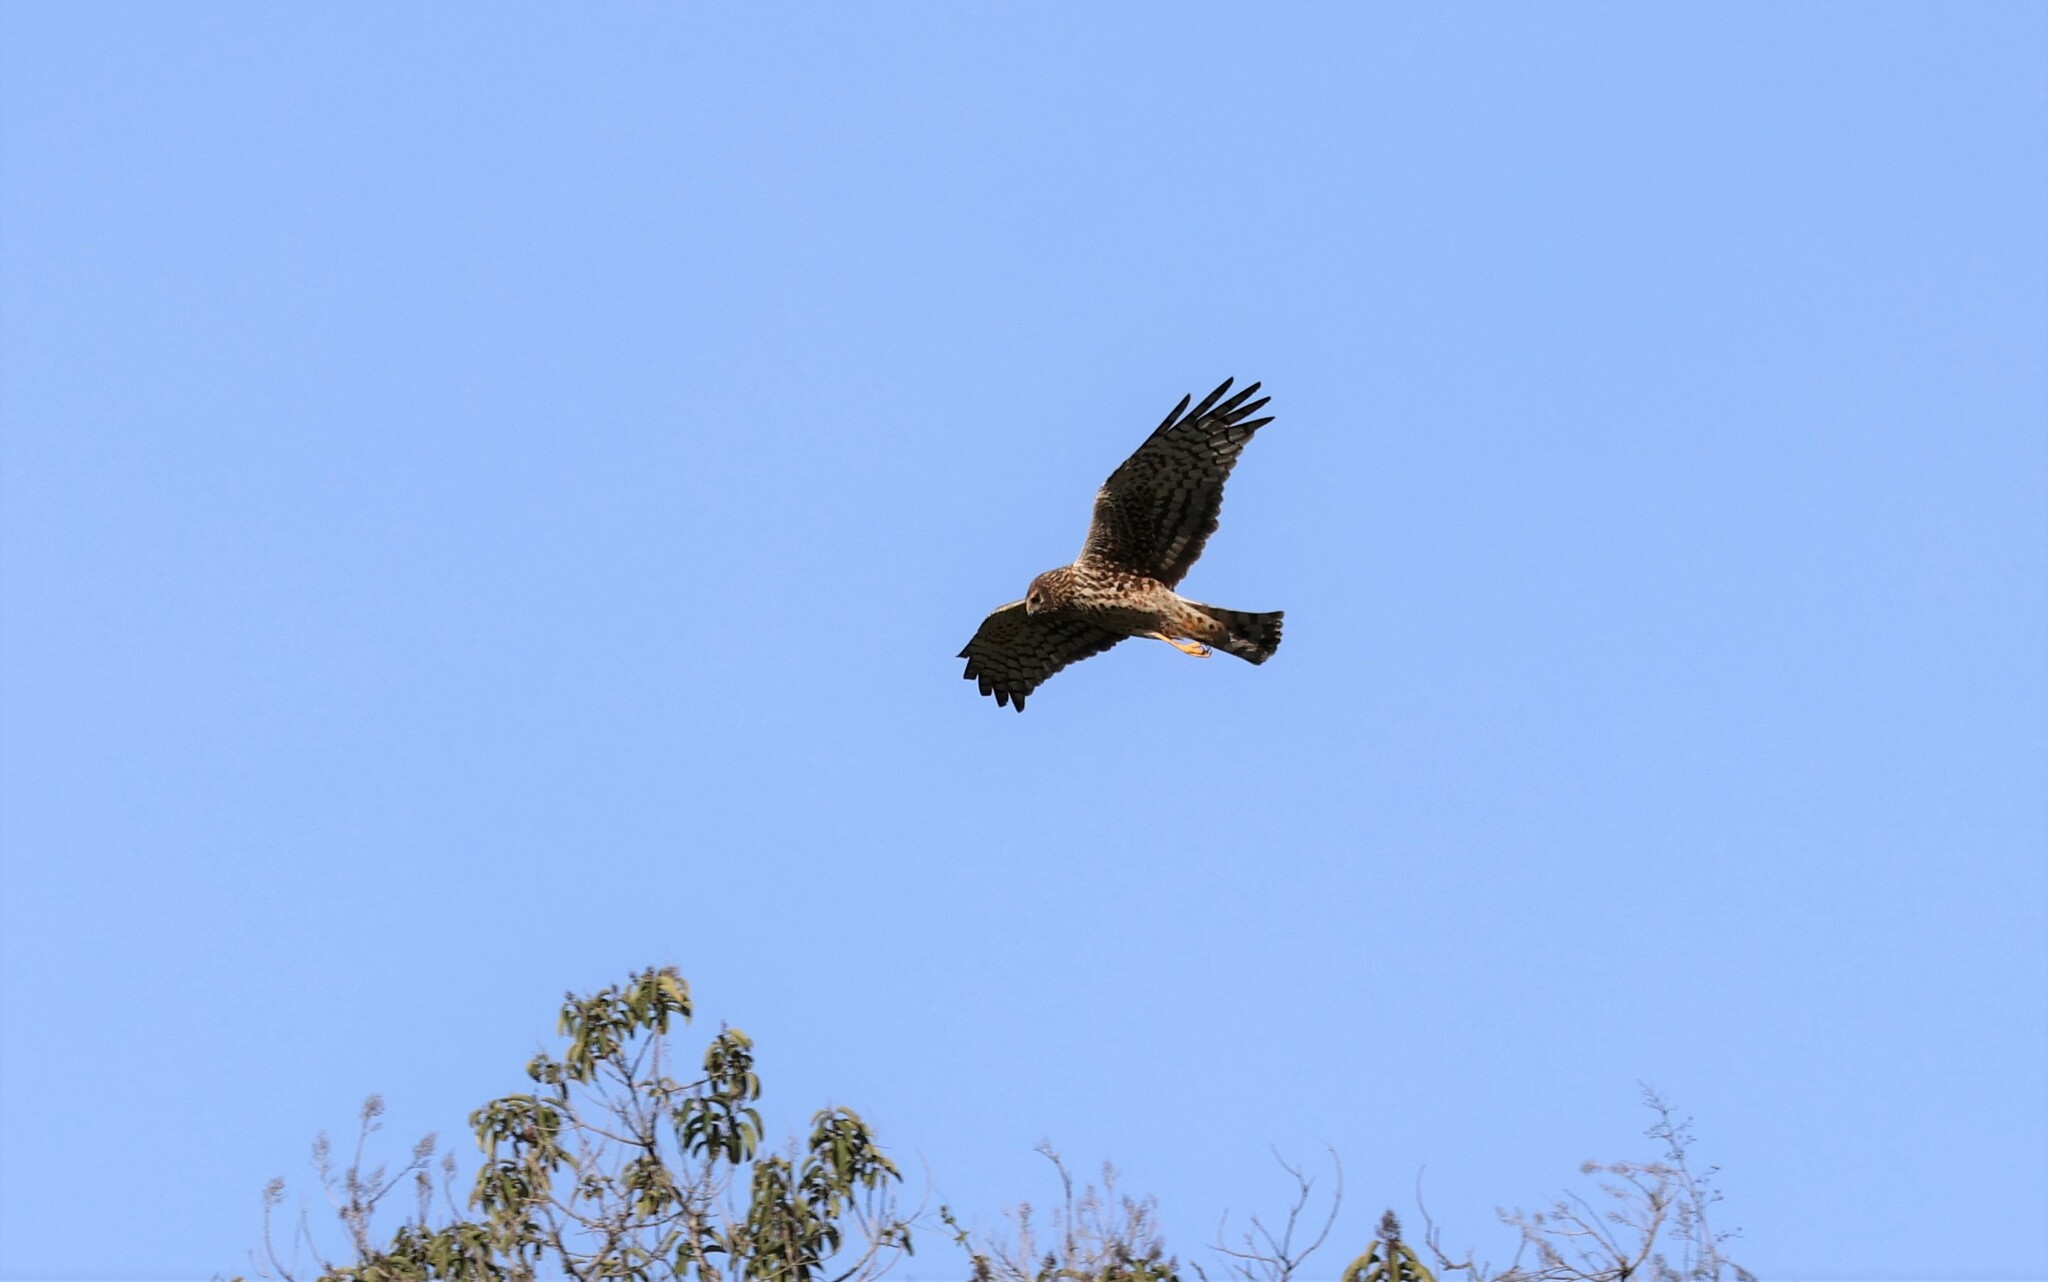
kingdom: Animalia
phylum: Chordata
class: Aves
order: Accipitriformes
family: Accipitridae
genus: Circus
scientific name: Circus cyaneus
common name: Hen harrier
